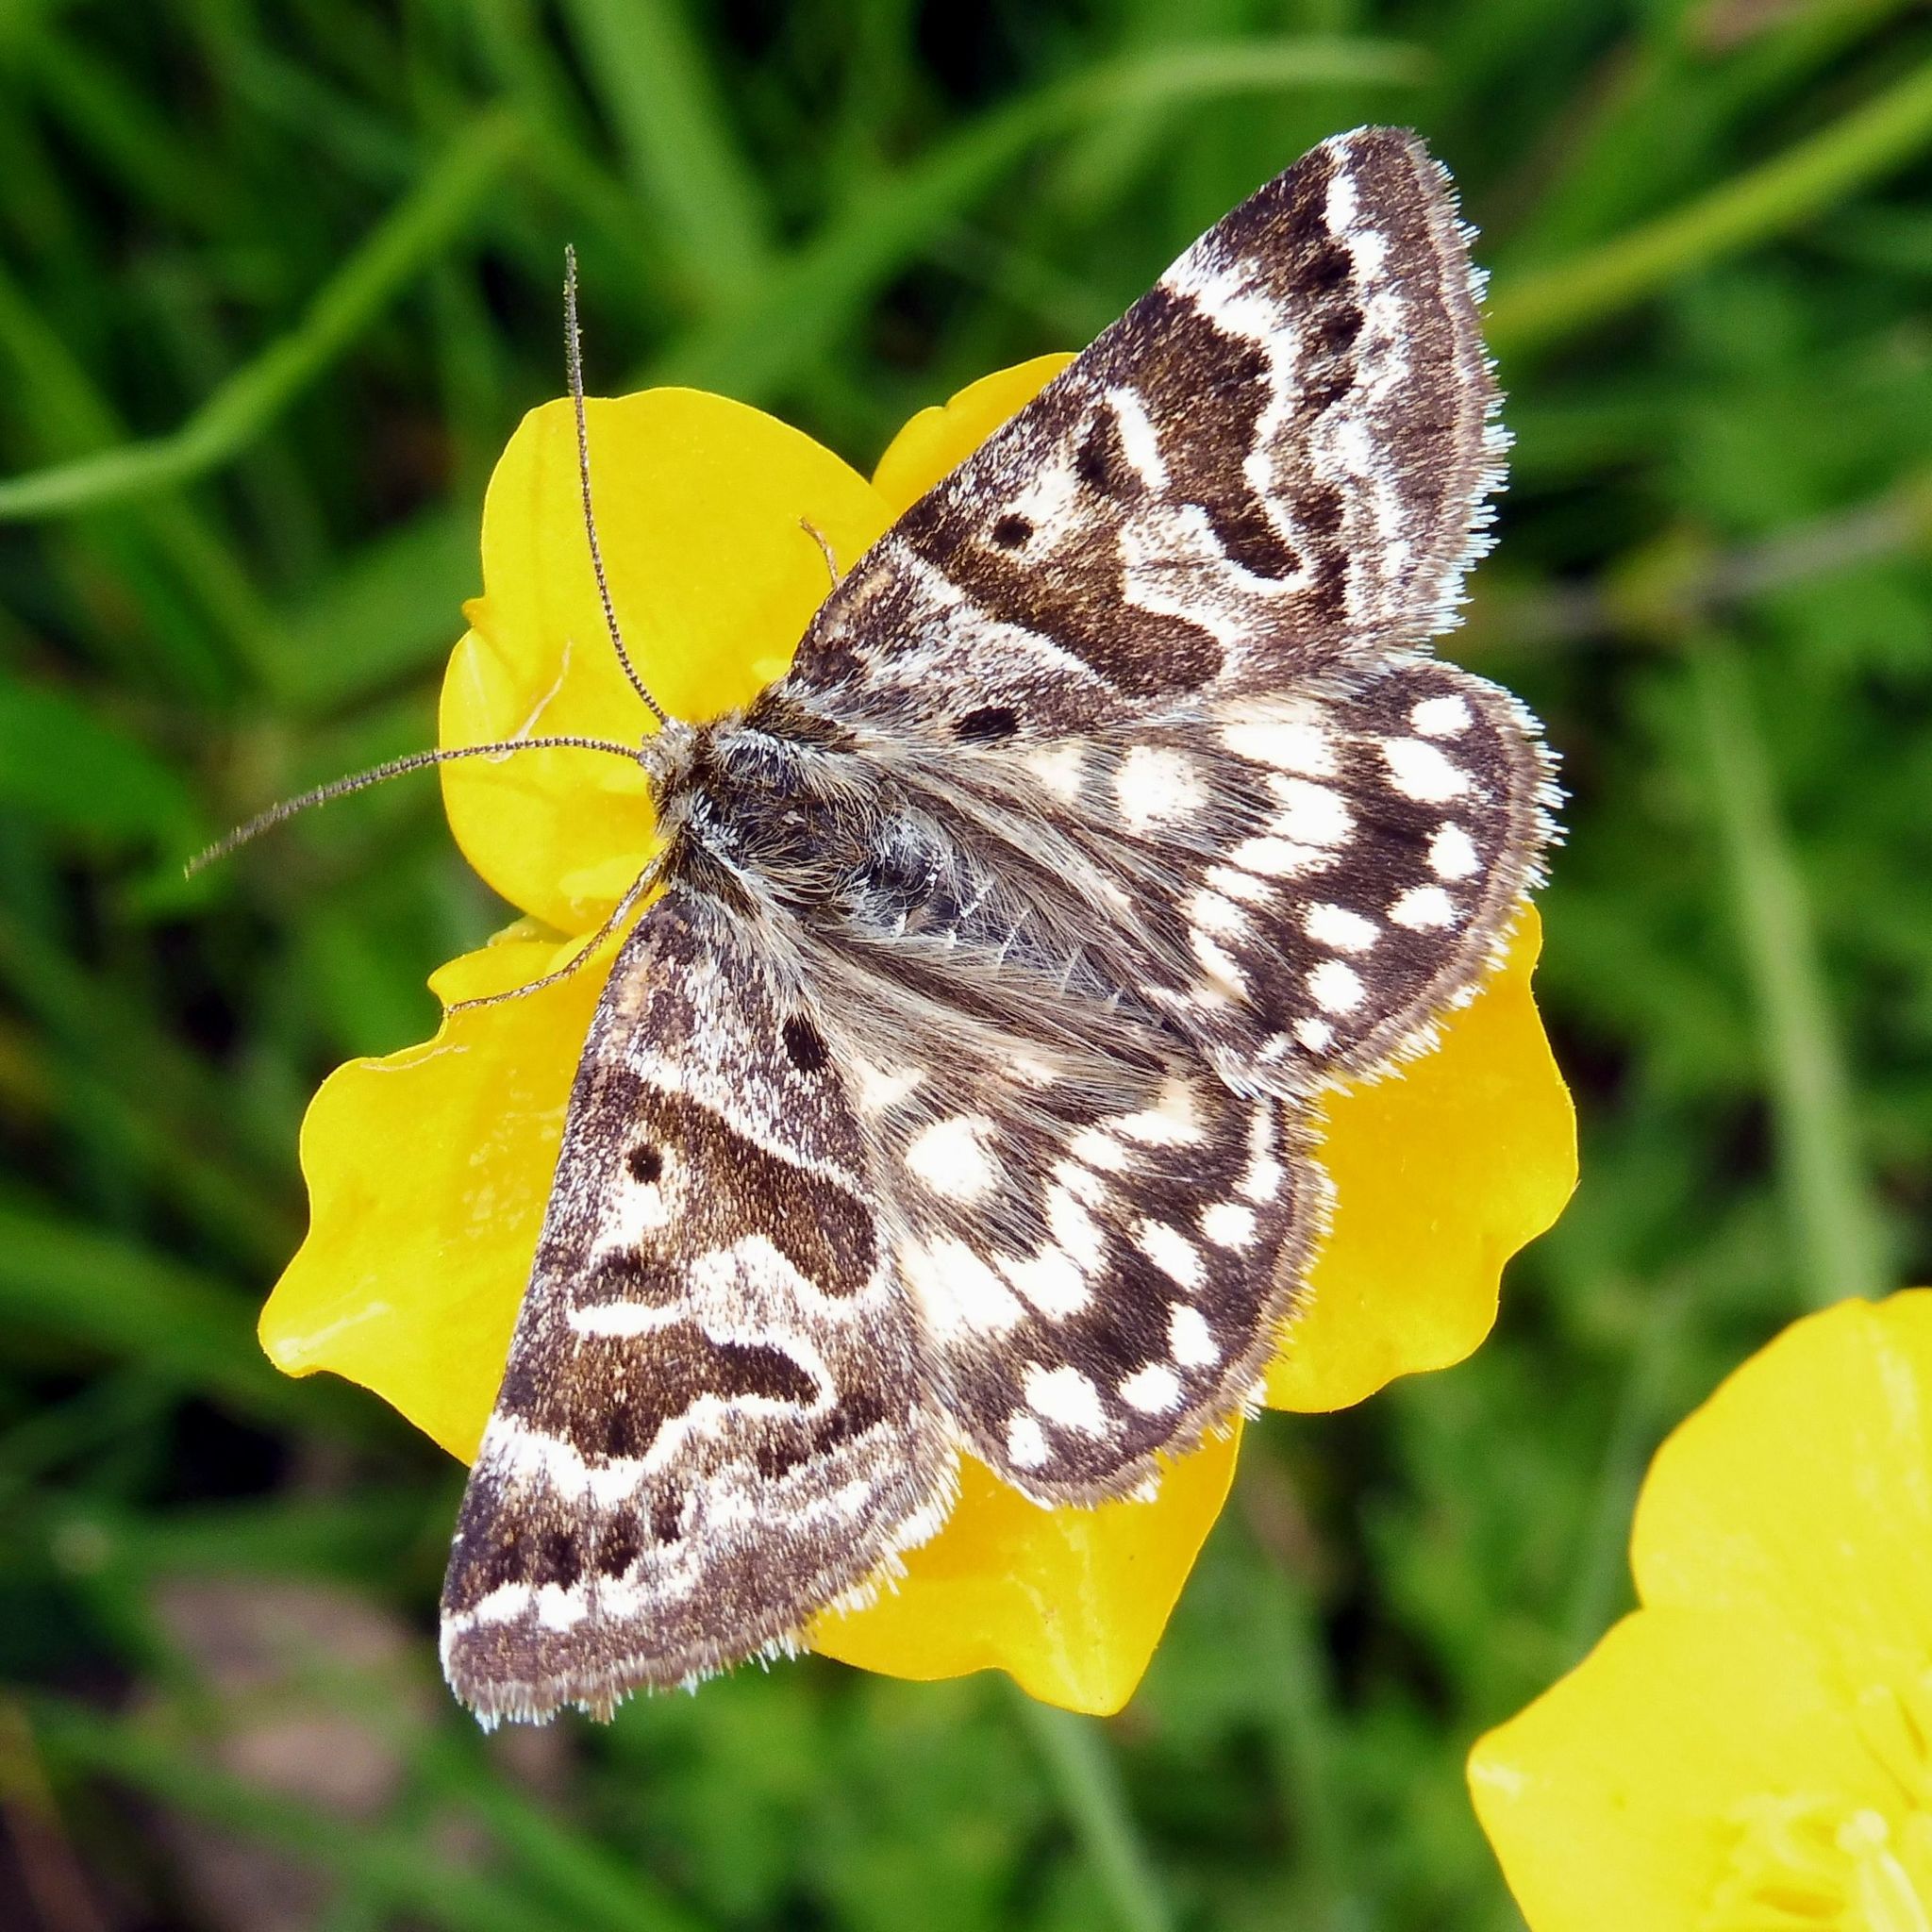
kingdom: Animalia
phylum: Arthropoda
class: Insecta
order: Lepidoptera
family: Erebidae
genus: Callistege
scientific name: Callistege mi
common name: Mother shipton
